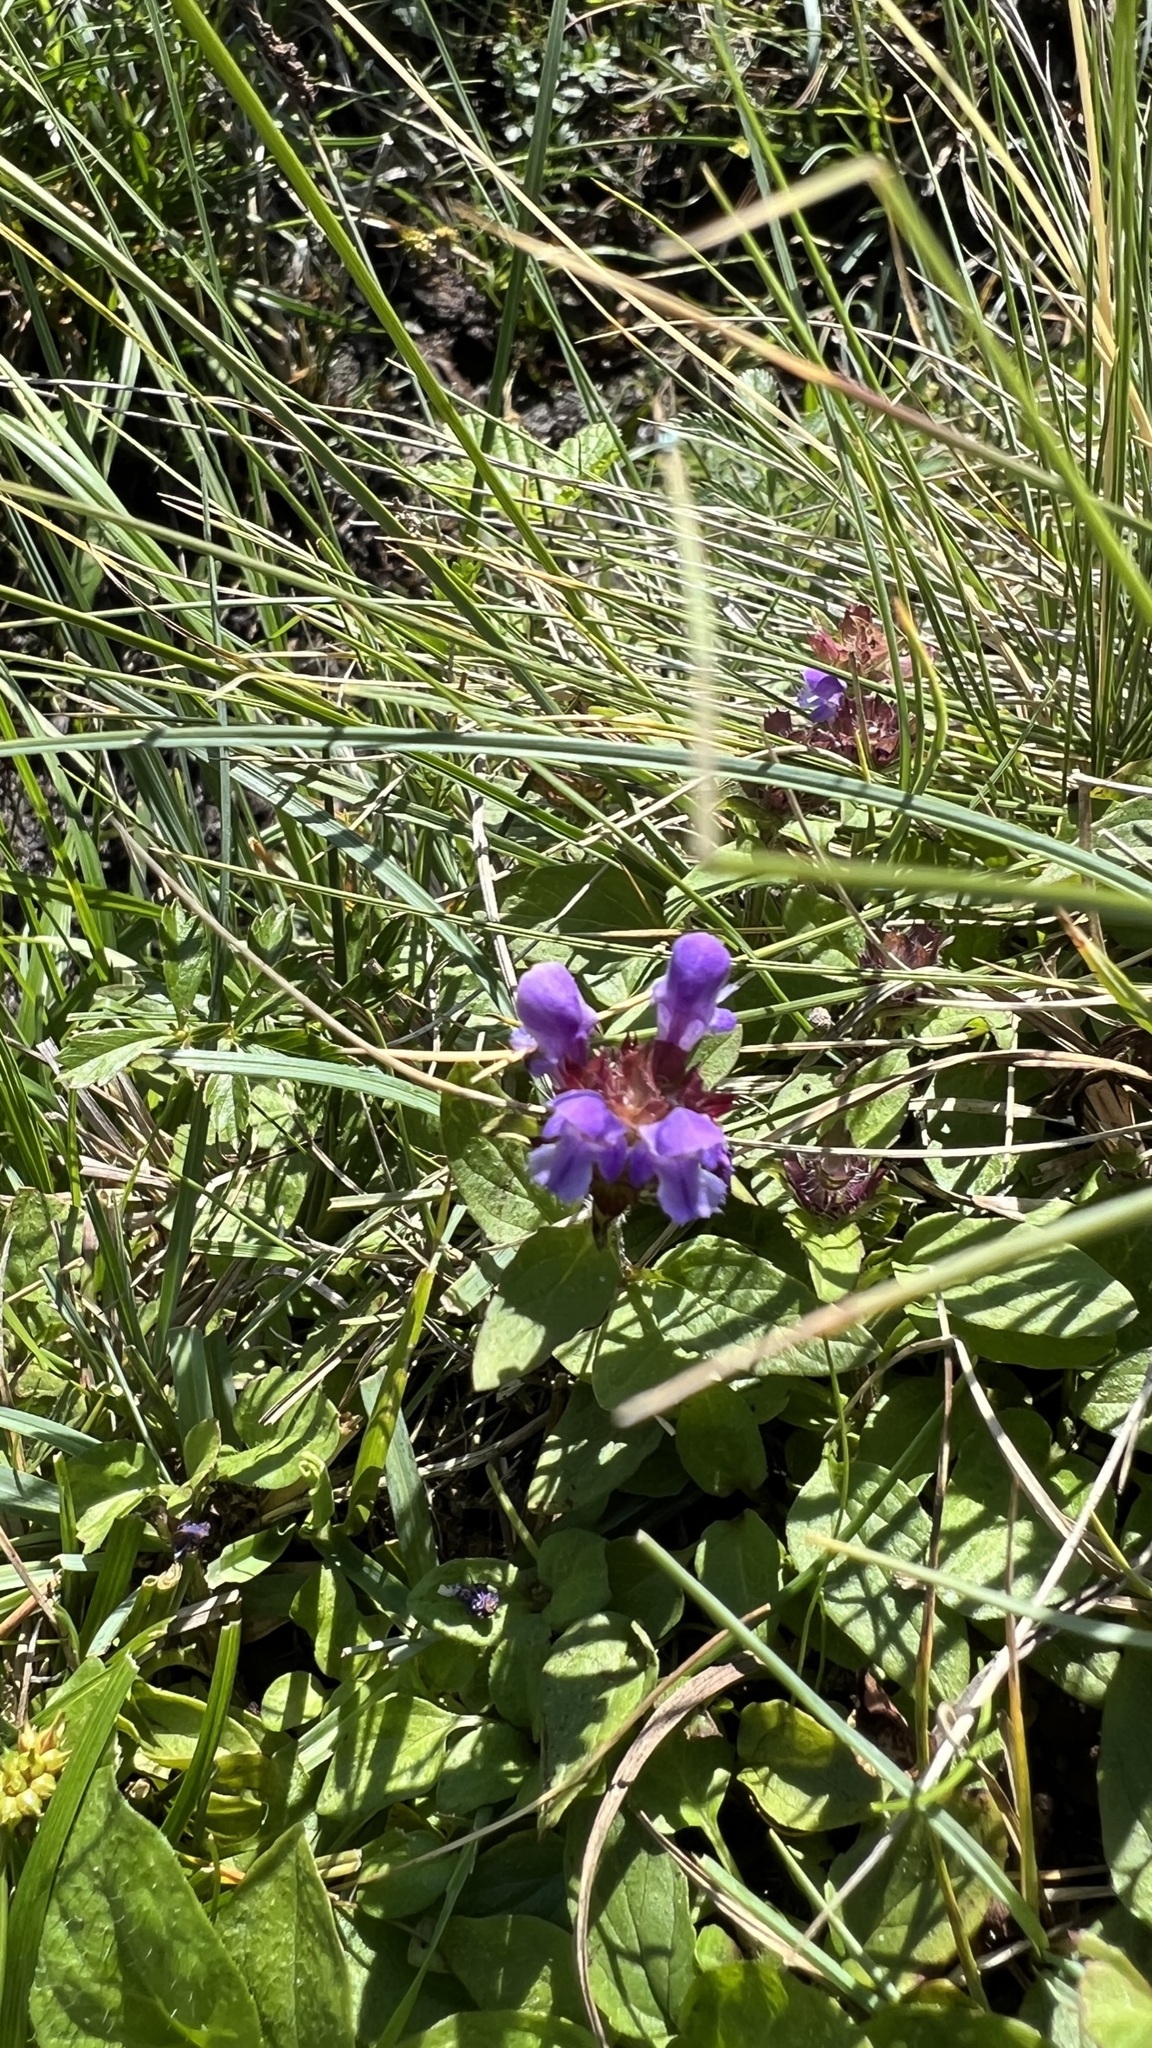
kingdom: Plantae
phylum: Tracheophyta
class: Magnoliopsida
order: Lamiales
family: Lamiaceae
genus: Prunella
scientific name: Prunella vulgaris
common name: Heal-all
